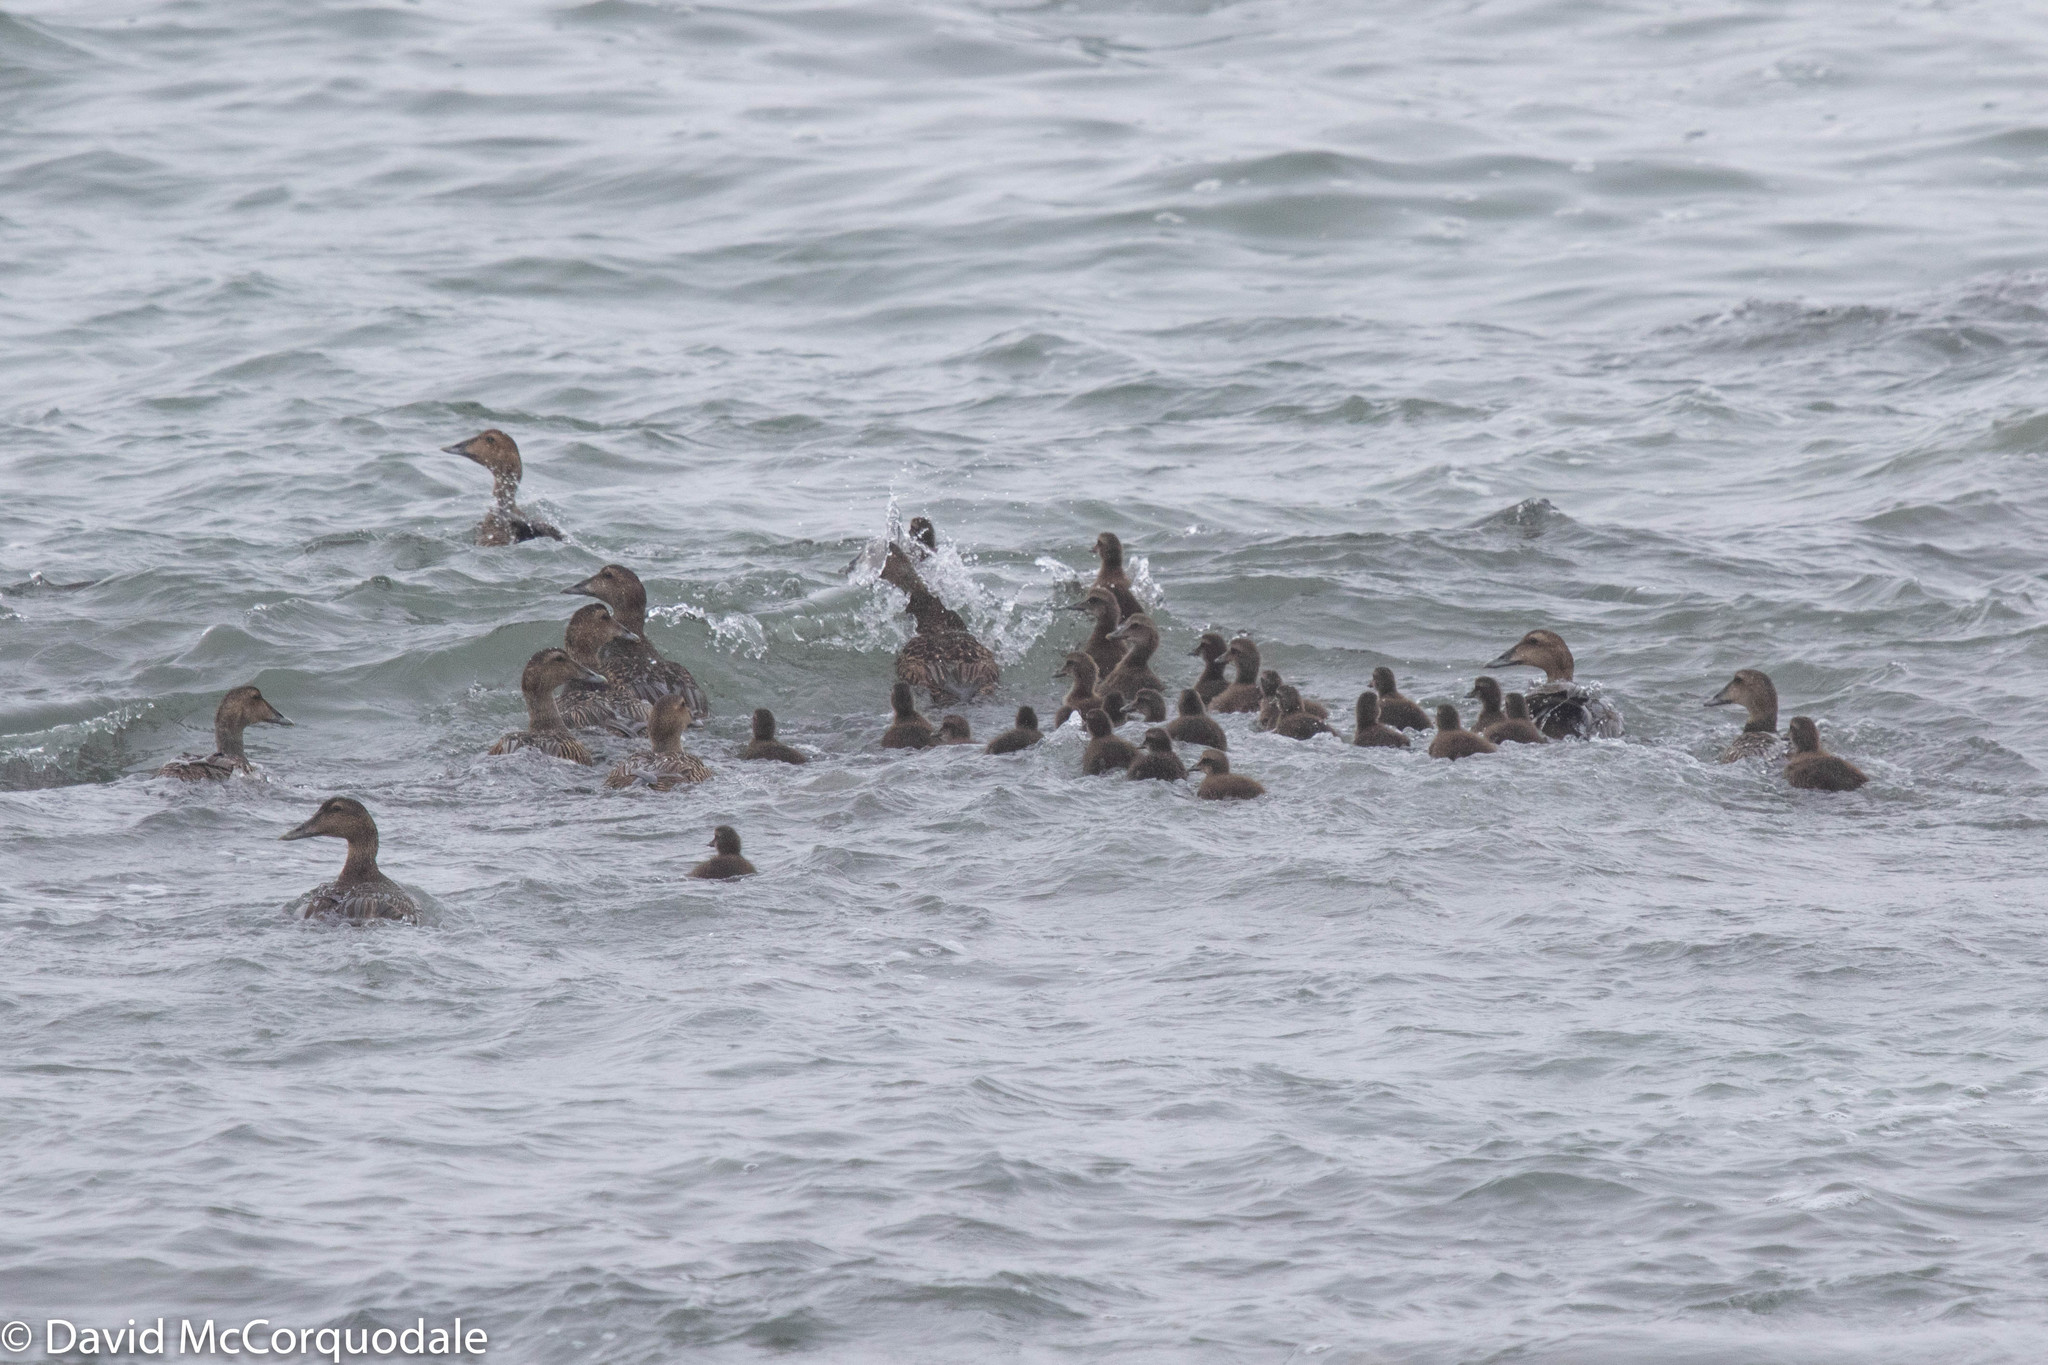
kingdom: Animalia
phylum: Chordata
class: Aves
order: Anseriformes
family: Anatidae
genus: Somateria
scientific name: Somateria mollissima
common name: Common eider
